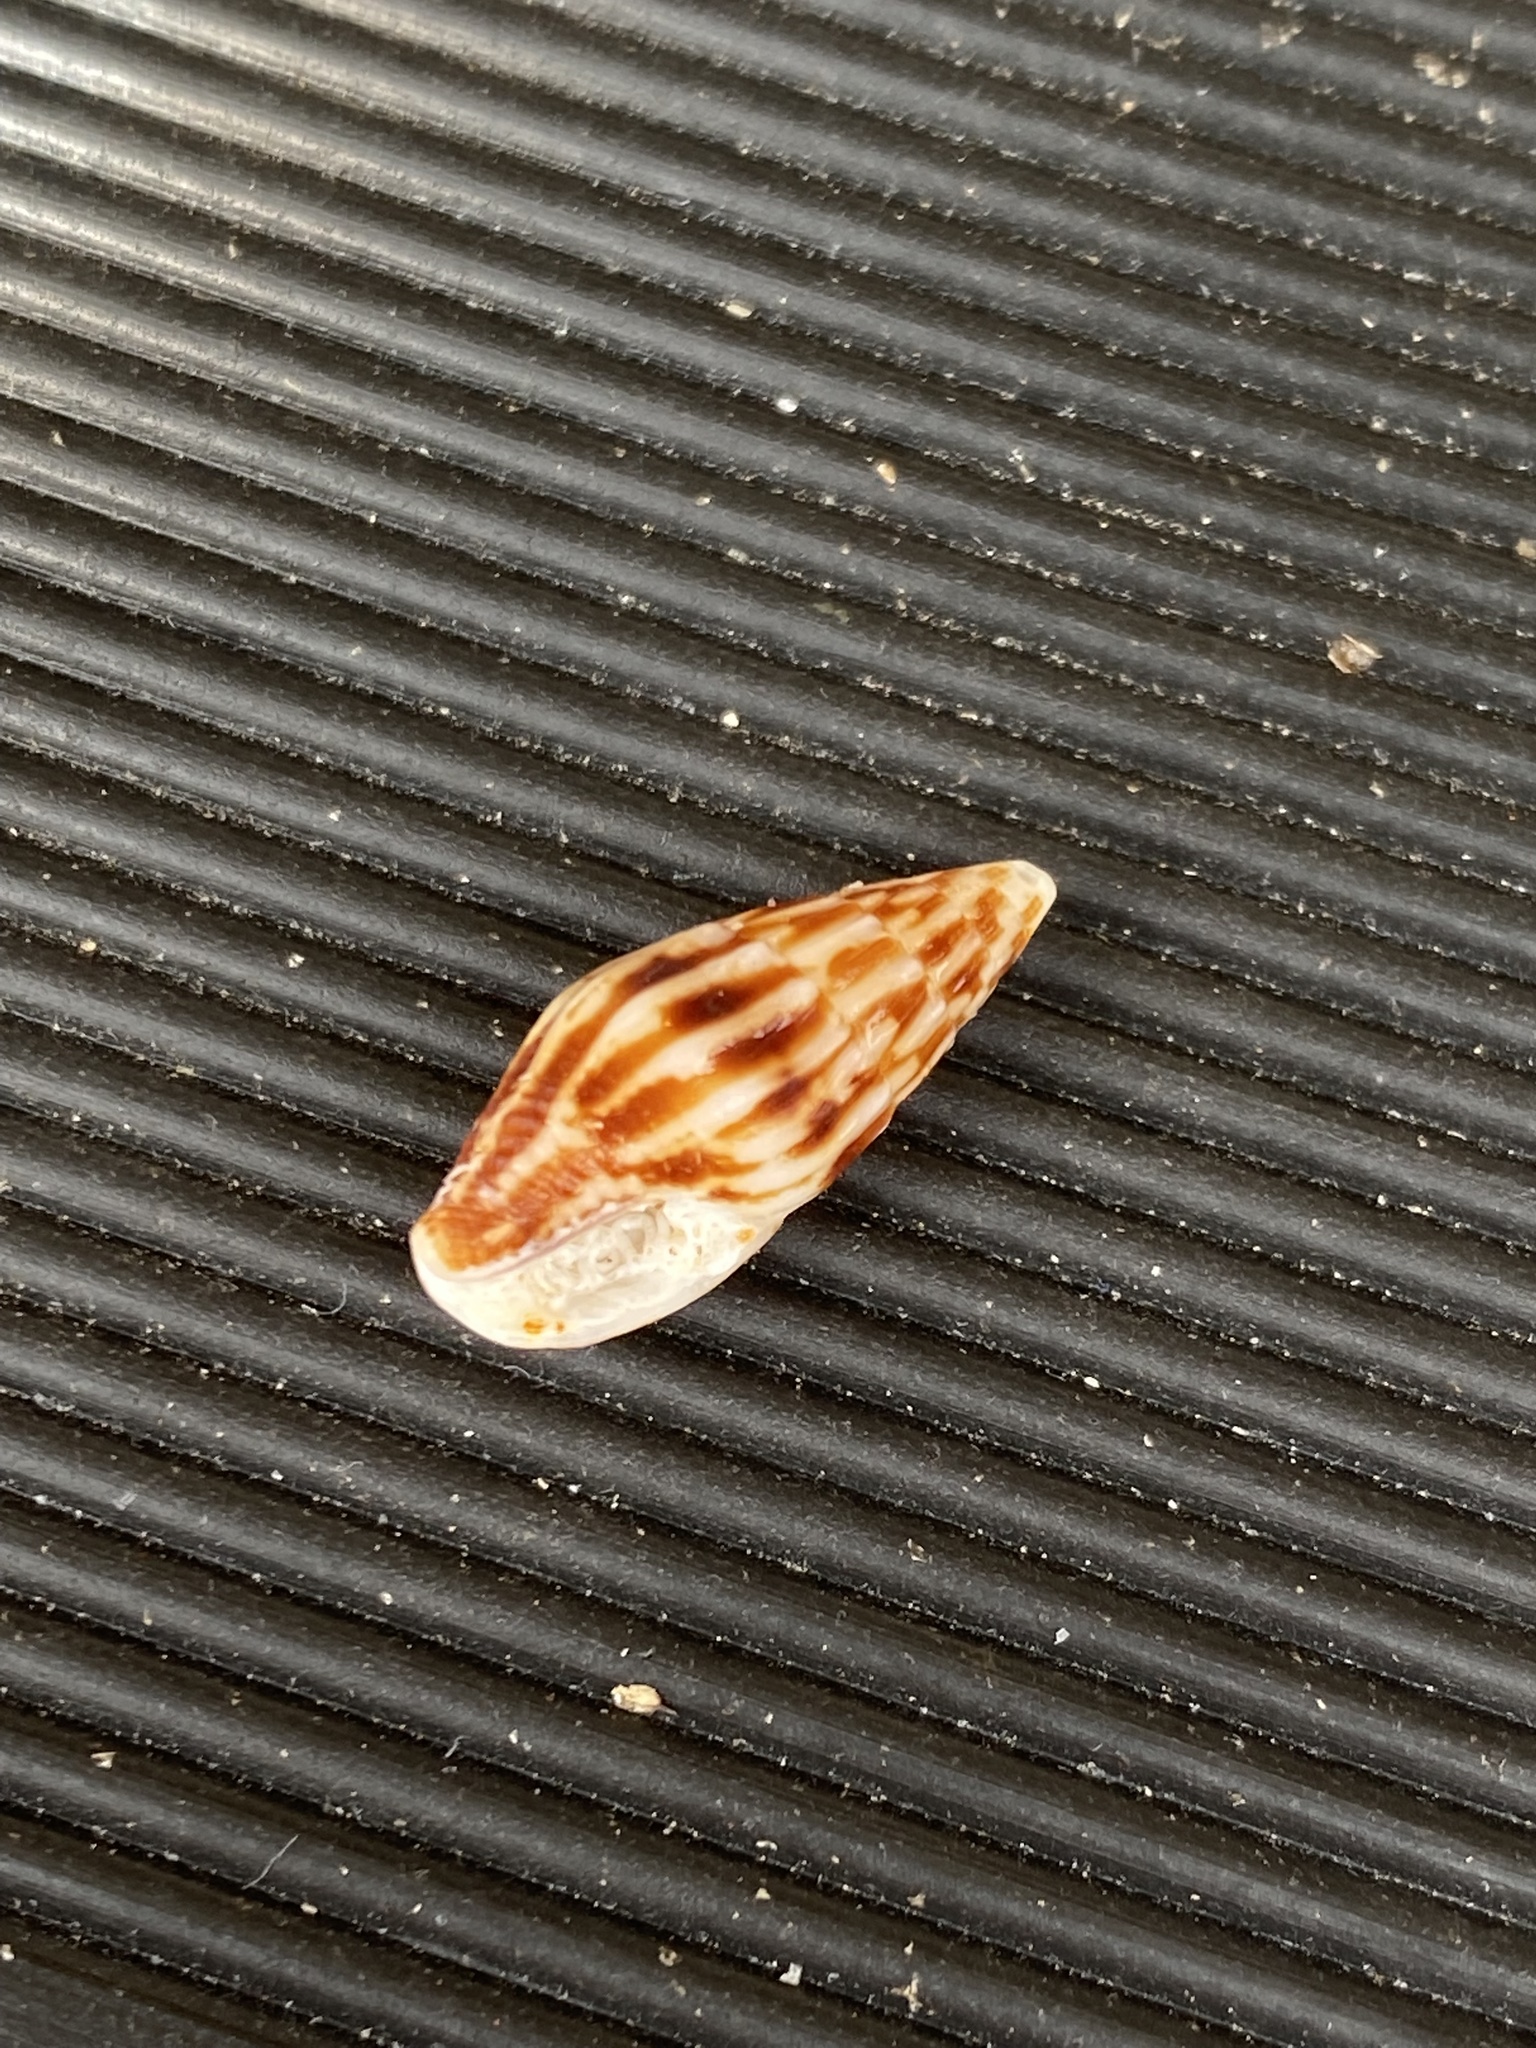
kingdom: Animalia
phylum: Mollusca
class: Gastropoda
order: Neogastropoda
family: Columbellidae
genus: Anachis
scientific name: Anachis vexillum
